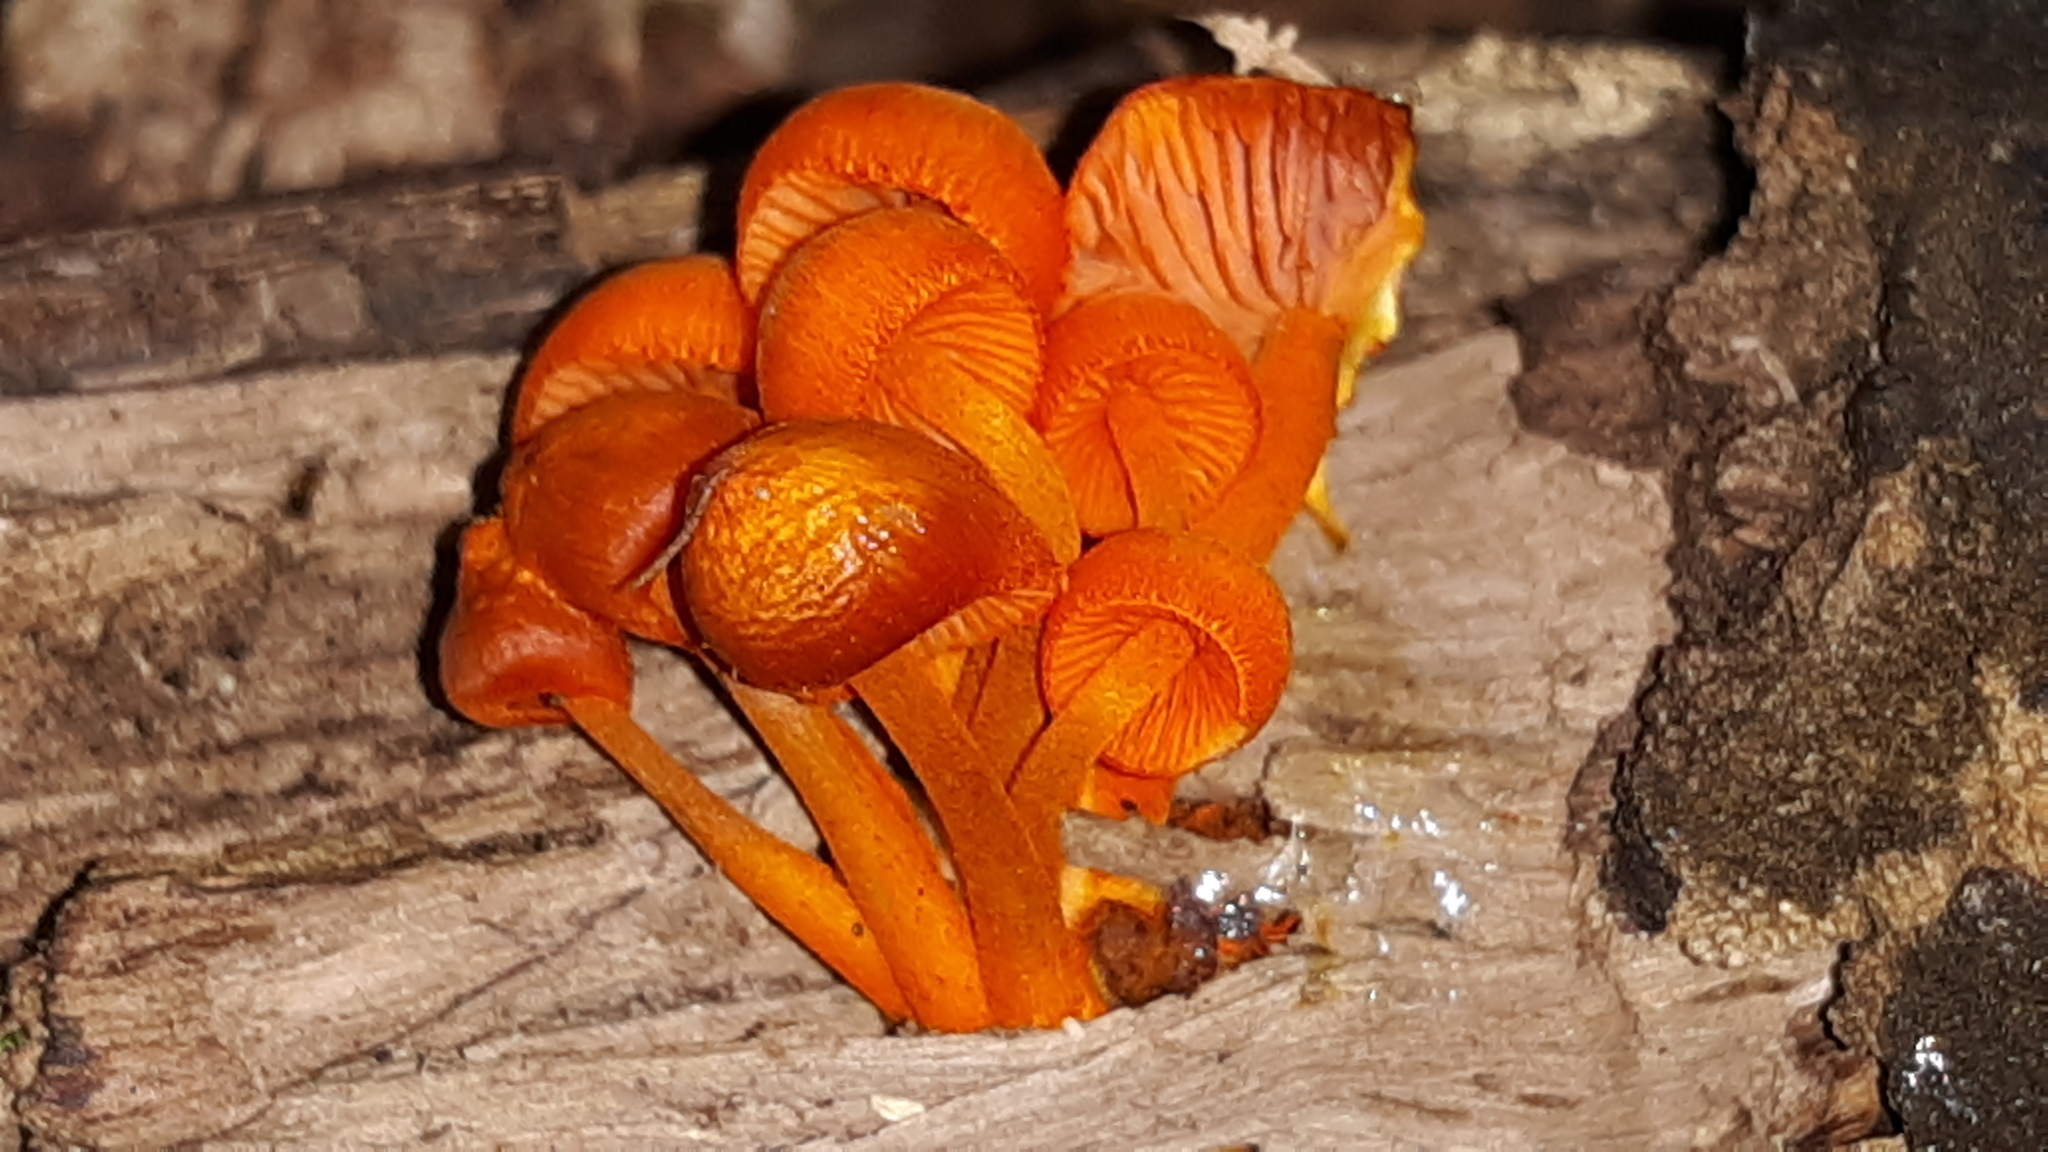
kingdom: Fungi
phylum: Basidiomycota
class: Agaricomycetes
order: Agaricales
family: Mycenaceae
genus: Mycena
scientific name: Mycena leaiana
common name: Orange mycena
